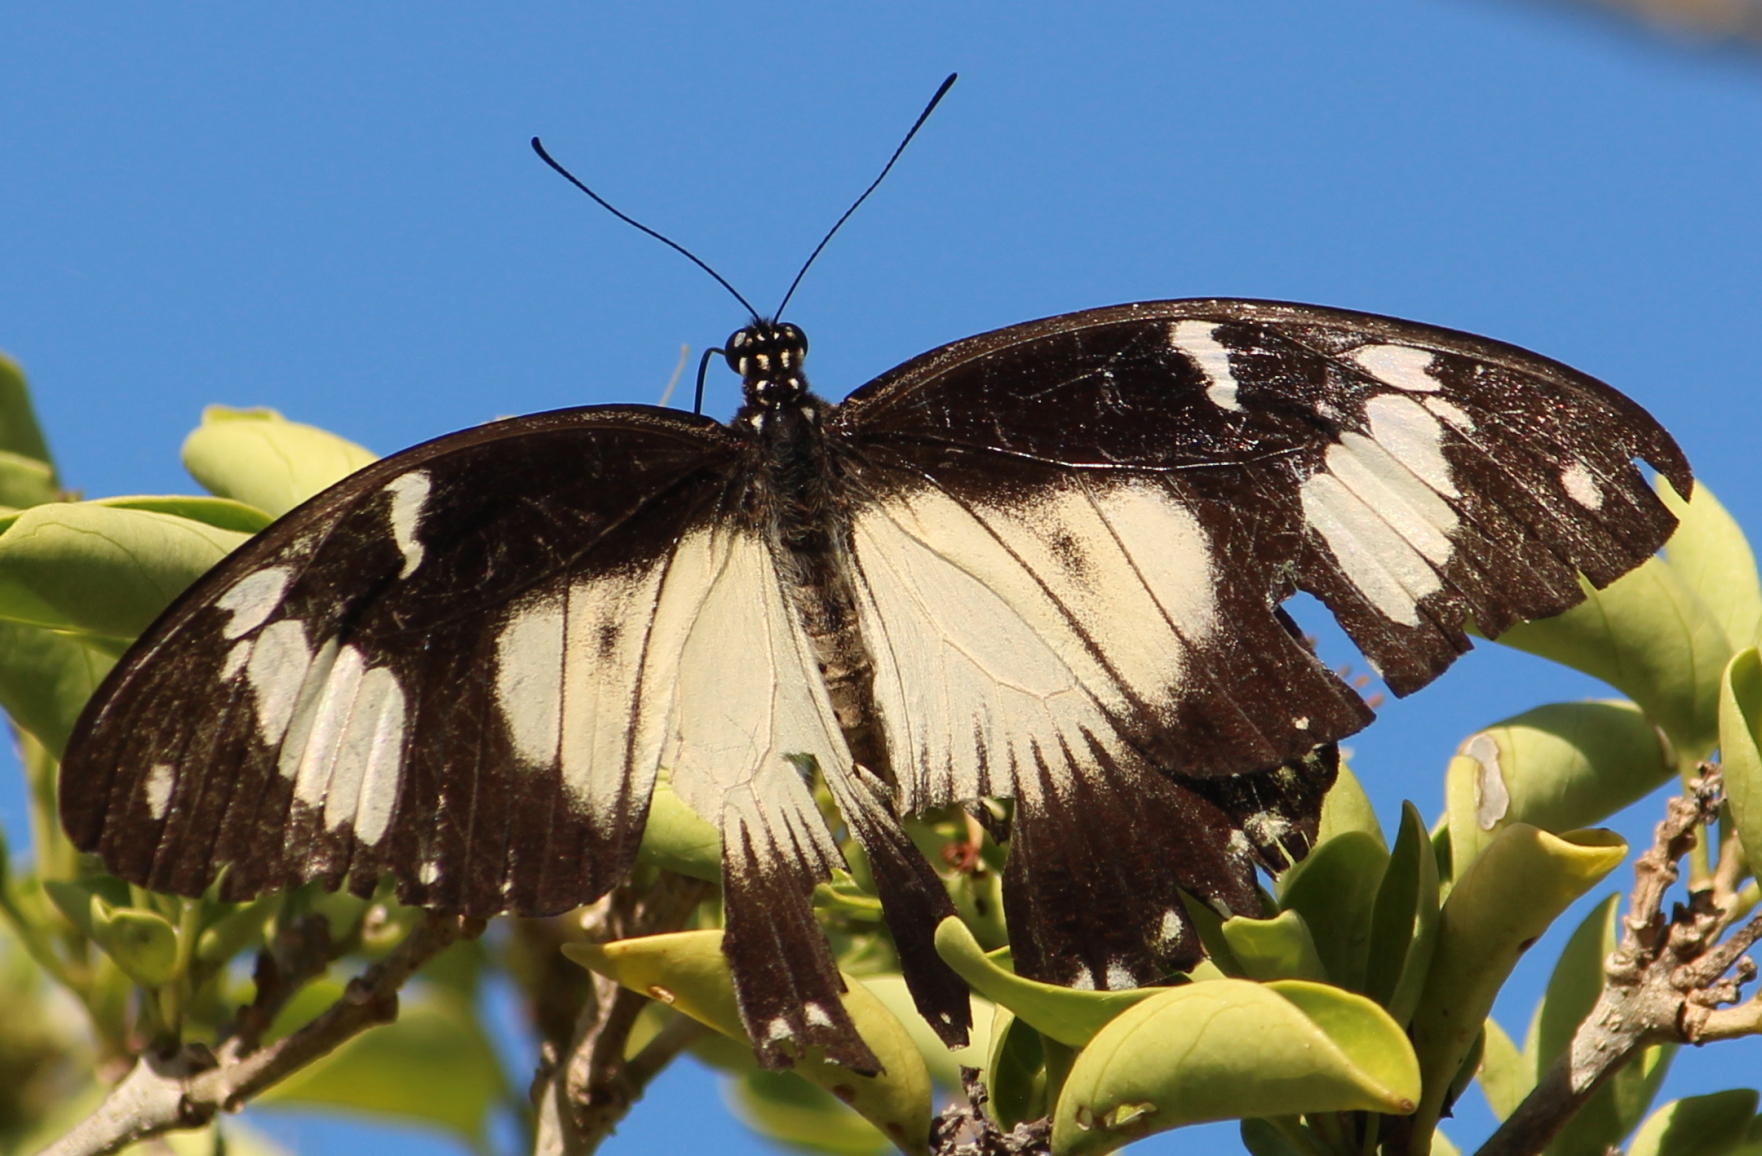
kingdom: Animalia
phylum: Arthropoda
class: Insecta
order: Lepidoptera
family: Papilionidae
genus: Papilio
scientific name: Papilio dardanus
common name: Flying handkerchief
